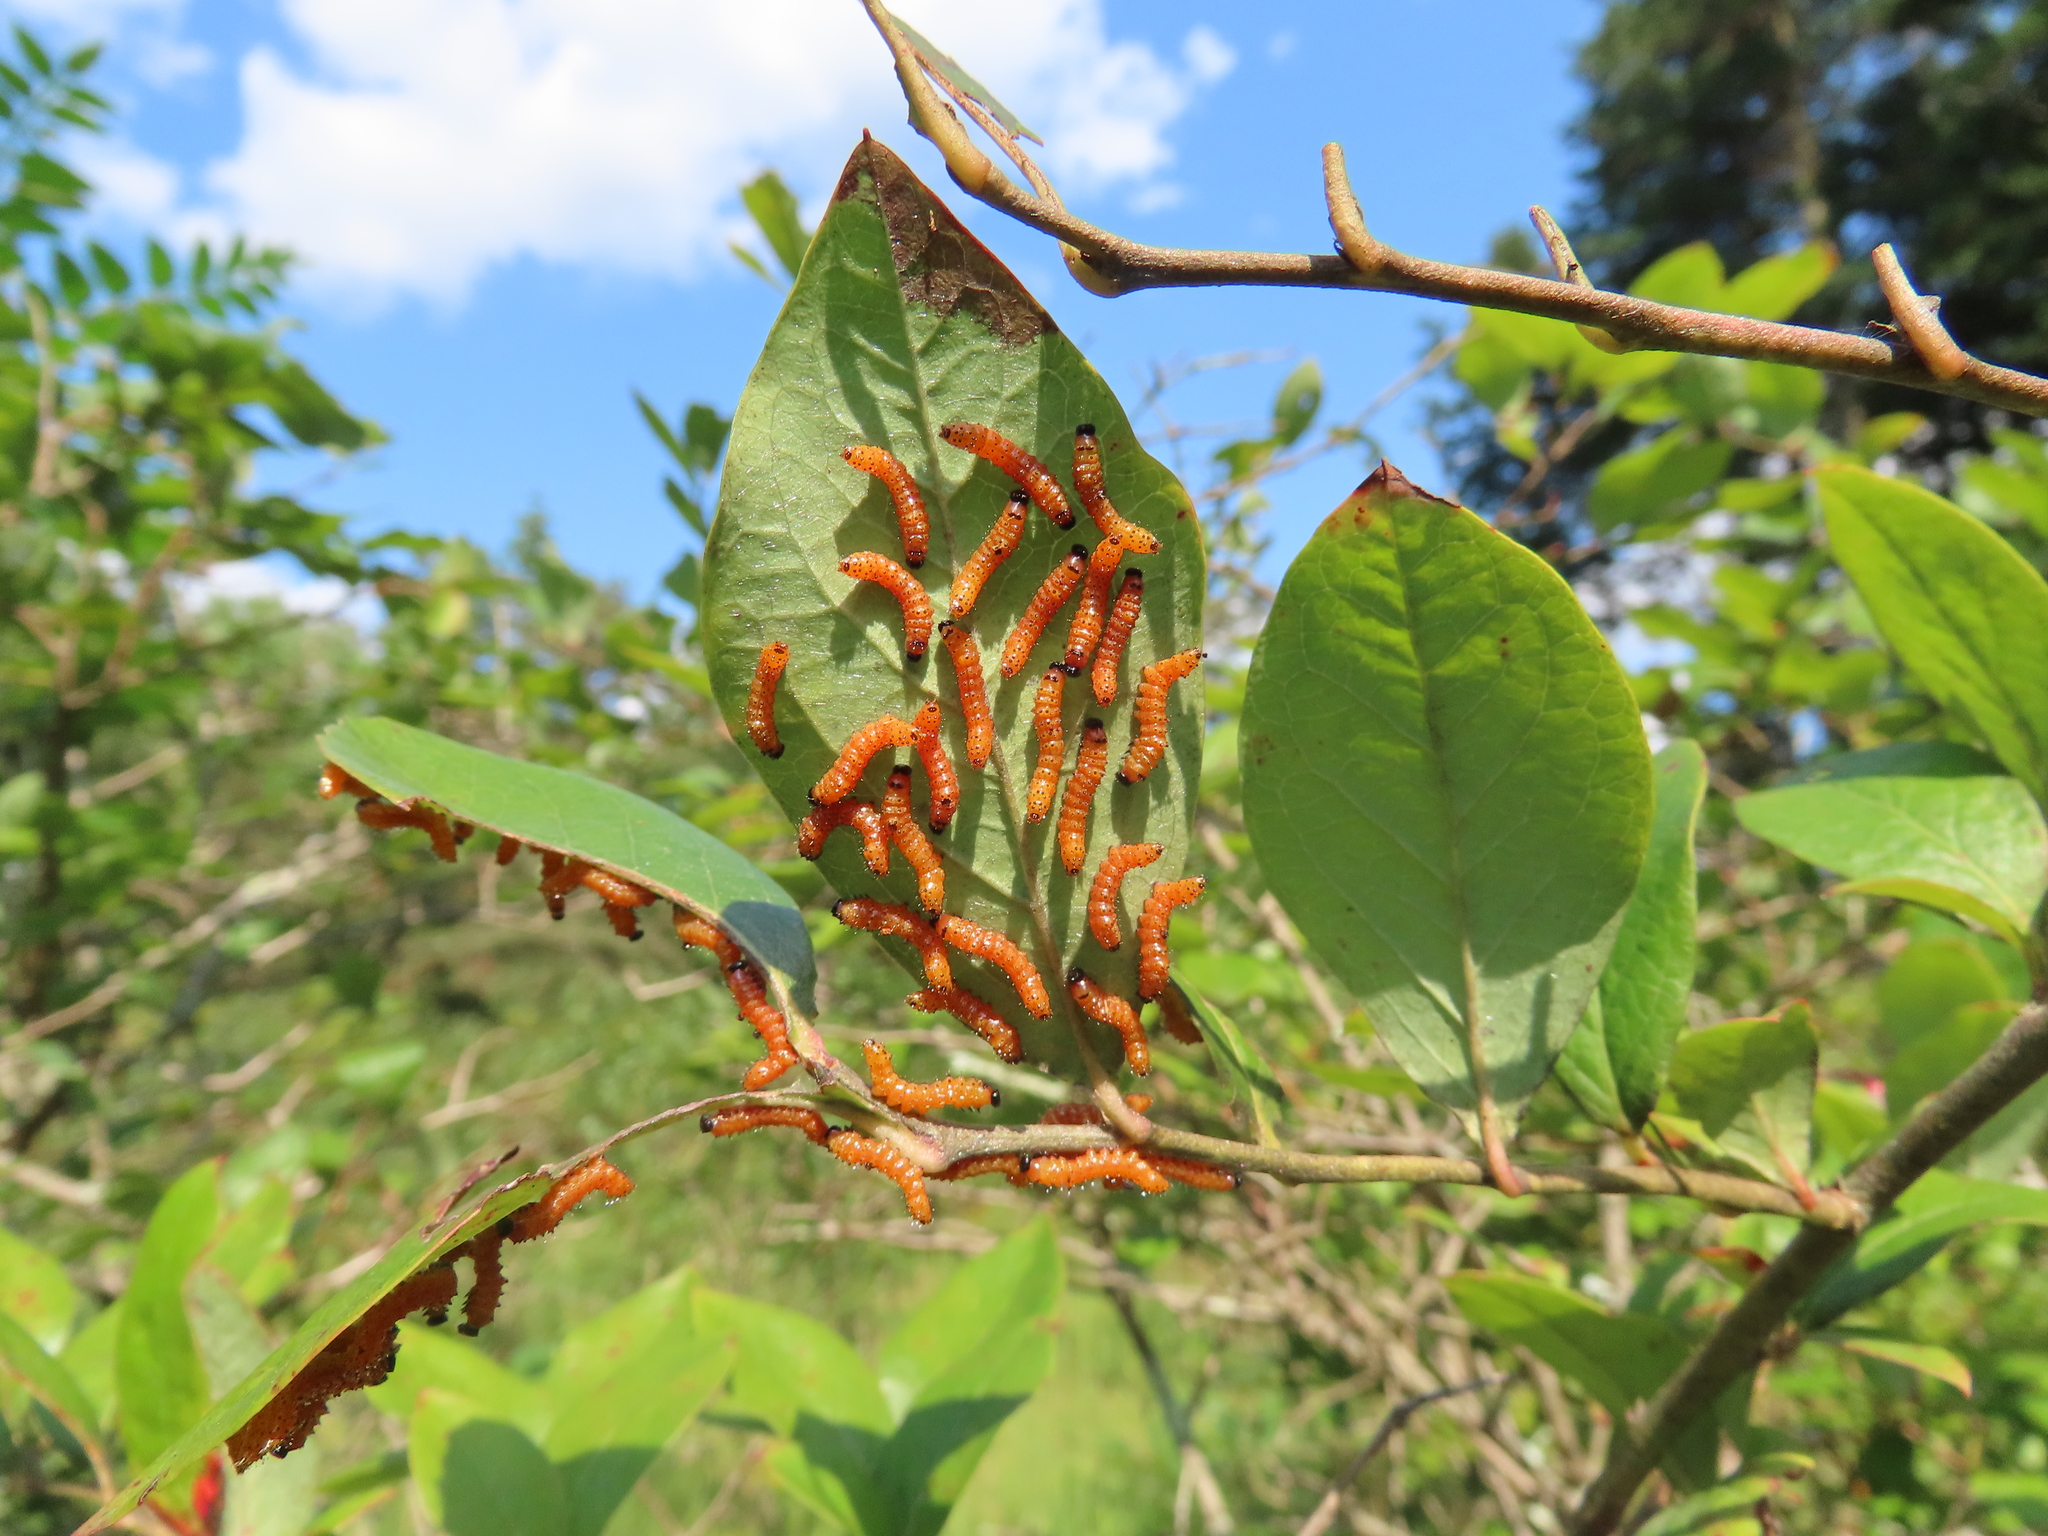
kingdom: Animalia
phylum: Arthropoda
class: Insecta
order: Lepidoptera
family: Notodontidae
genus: Schizura
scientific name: Schizura
